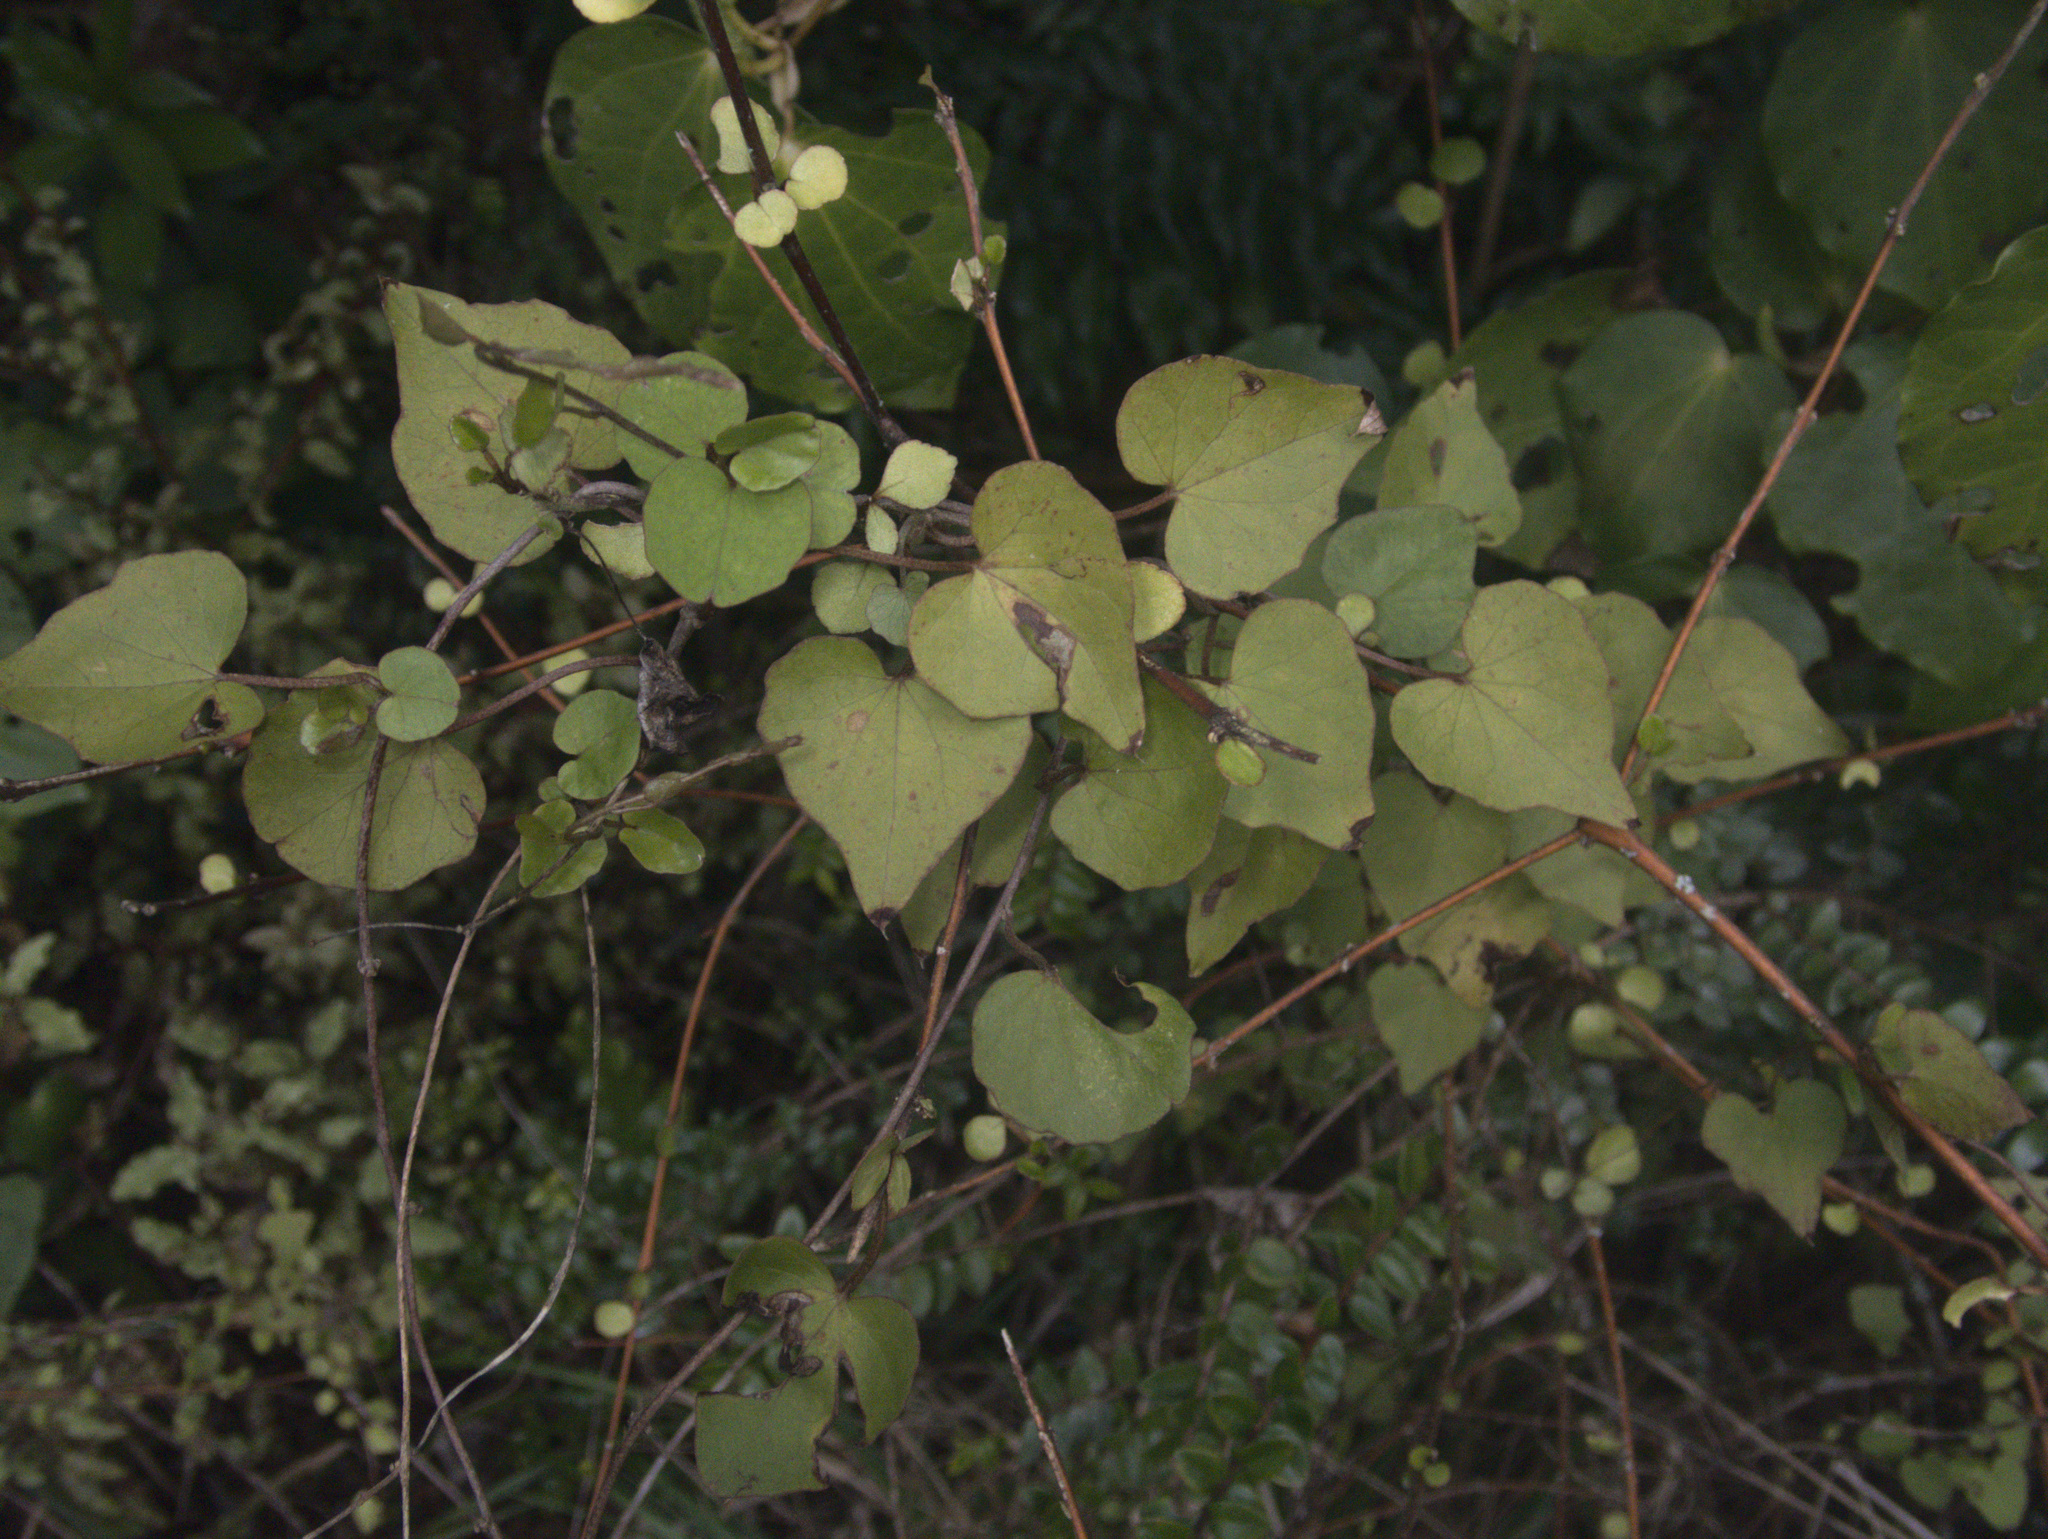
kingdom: Plantae
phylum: Tracheophyta
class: Magnoliopsida
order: Solanales
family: Convolvulaceae
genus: Calystegia
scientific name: Calystegia tuguriorum
